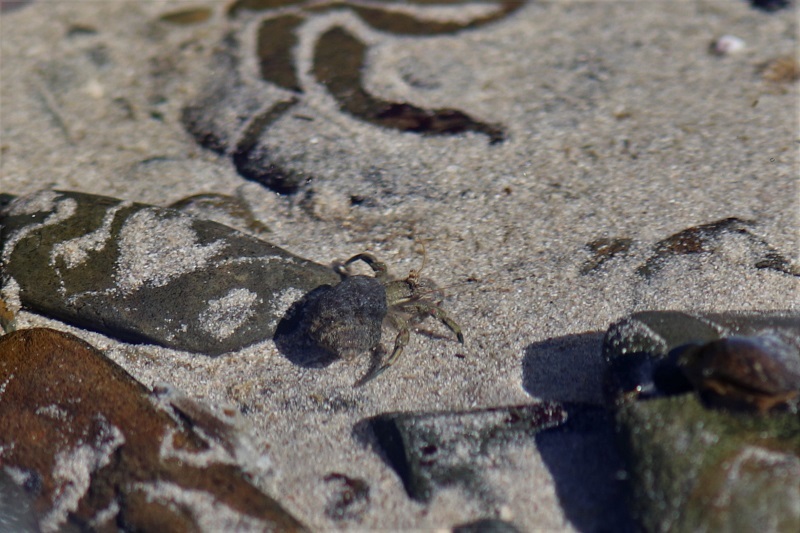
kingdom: Animalia
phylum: Arthropoda
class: Malacostraca
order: Decapoda
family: Diogenidae
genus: Diogenes
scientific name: Diogenes brevirostris
